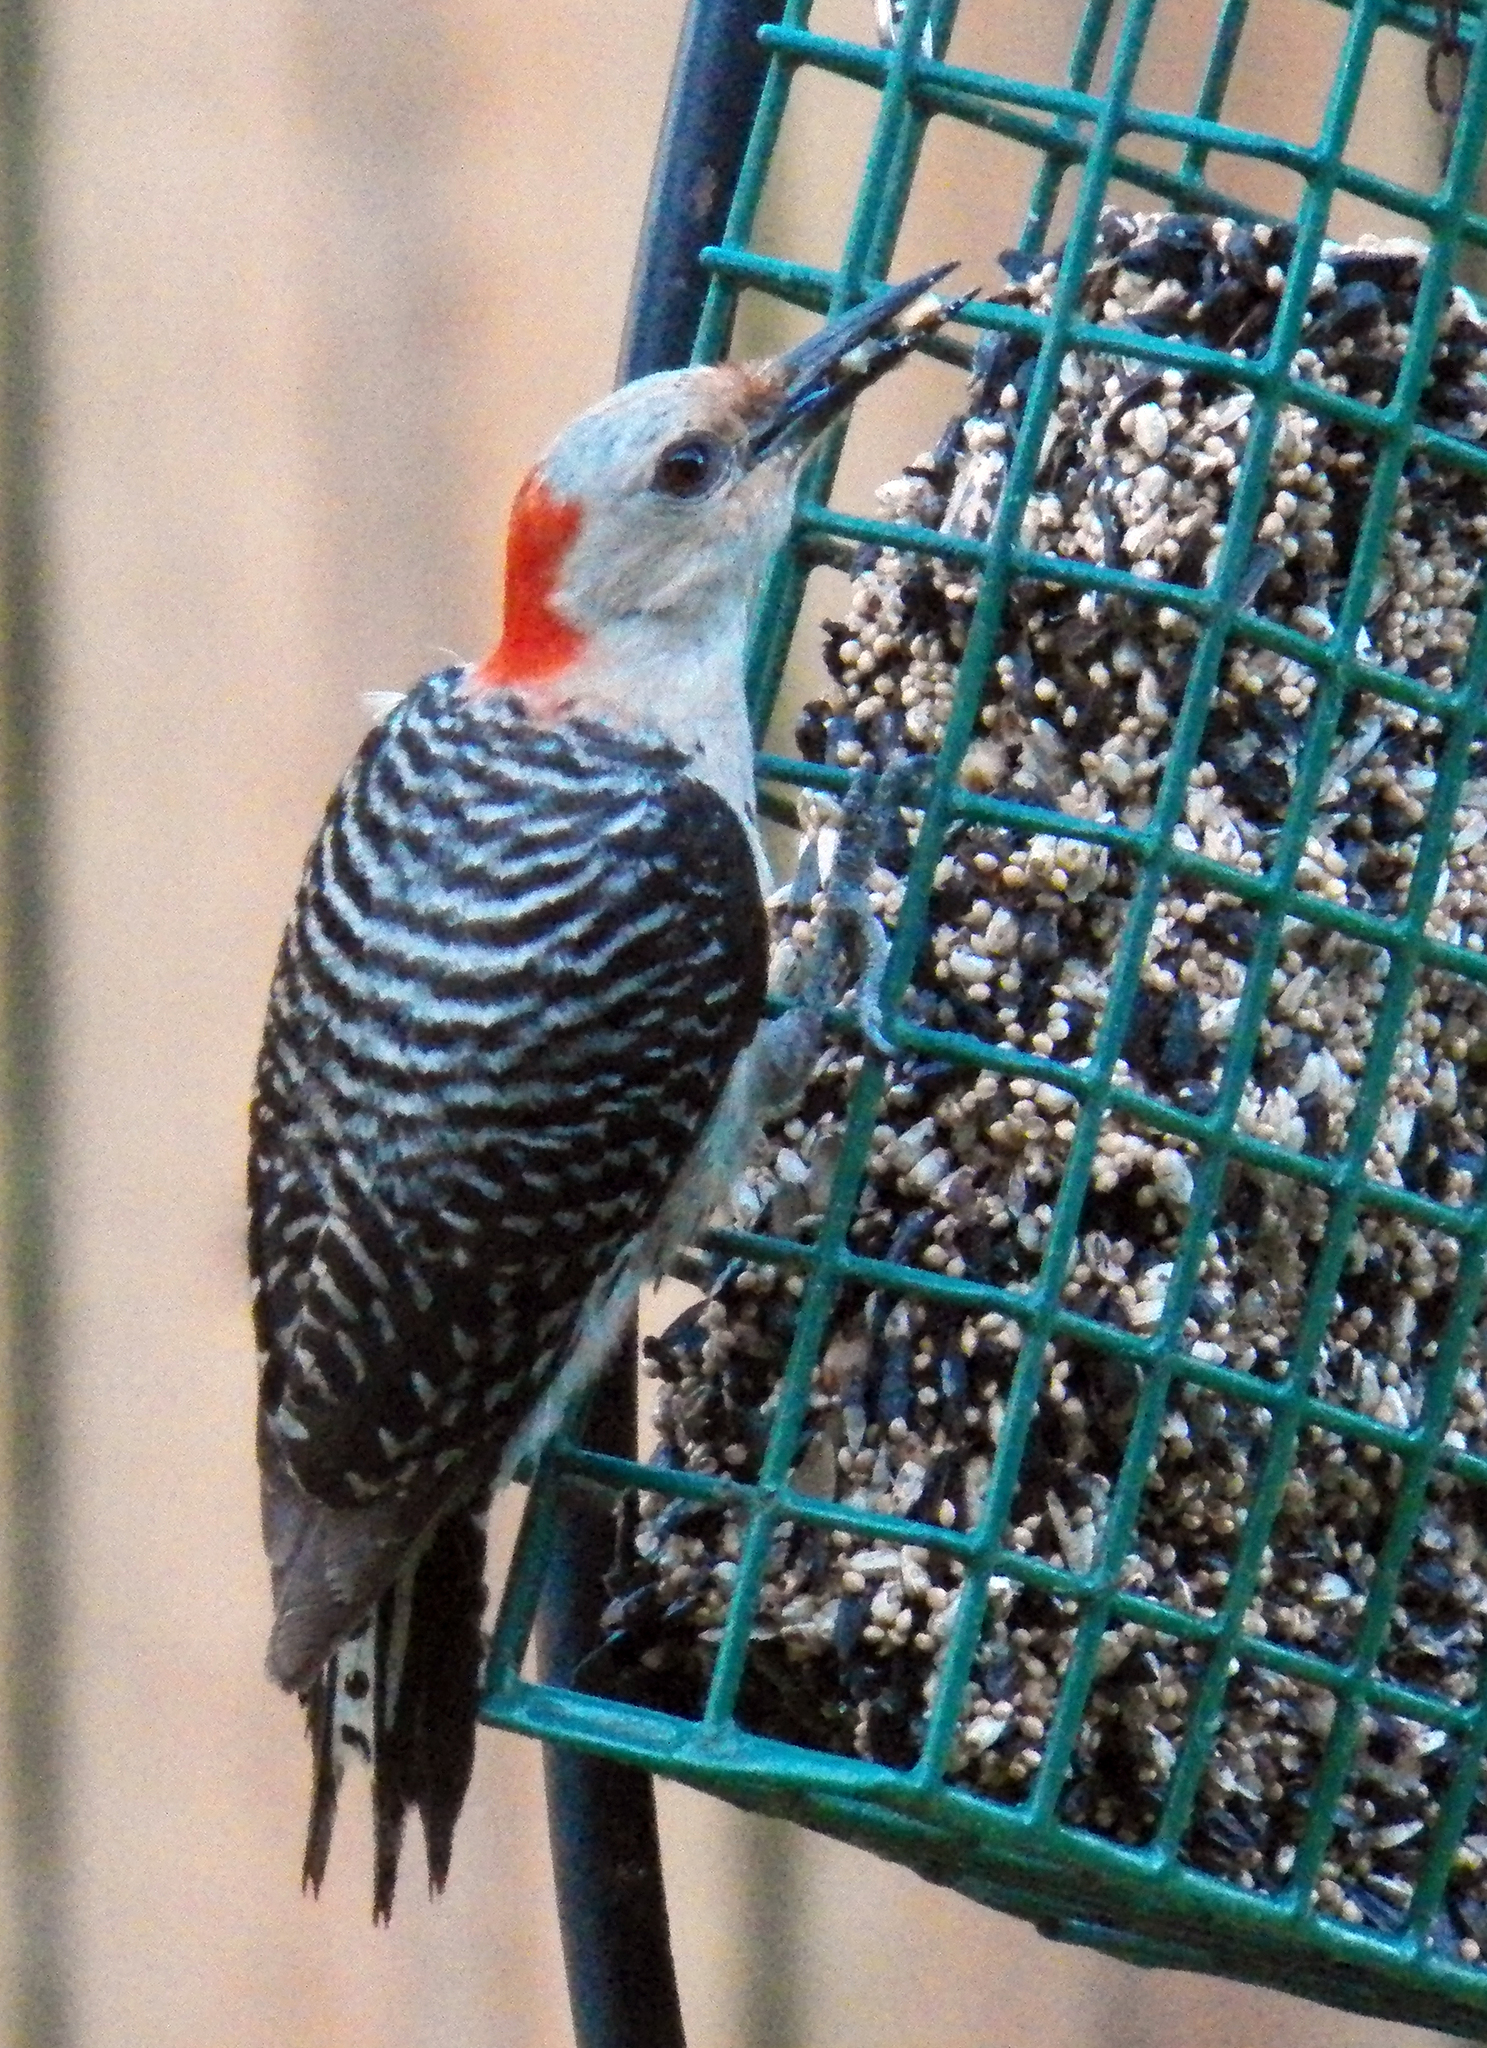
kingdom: Animalia
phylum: Chordata
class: Aves
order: Piciformes
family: Picidae
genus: Melanerpes
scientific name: Melanerpes carolinus
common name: Red-bellied woodpecker
